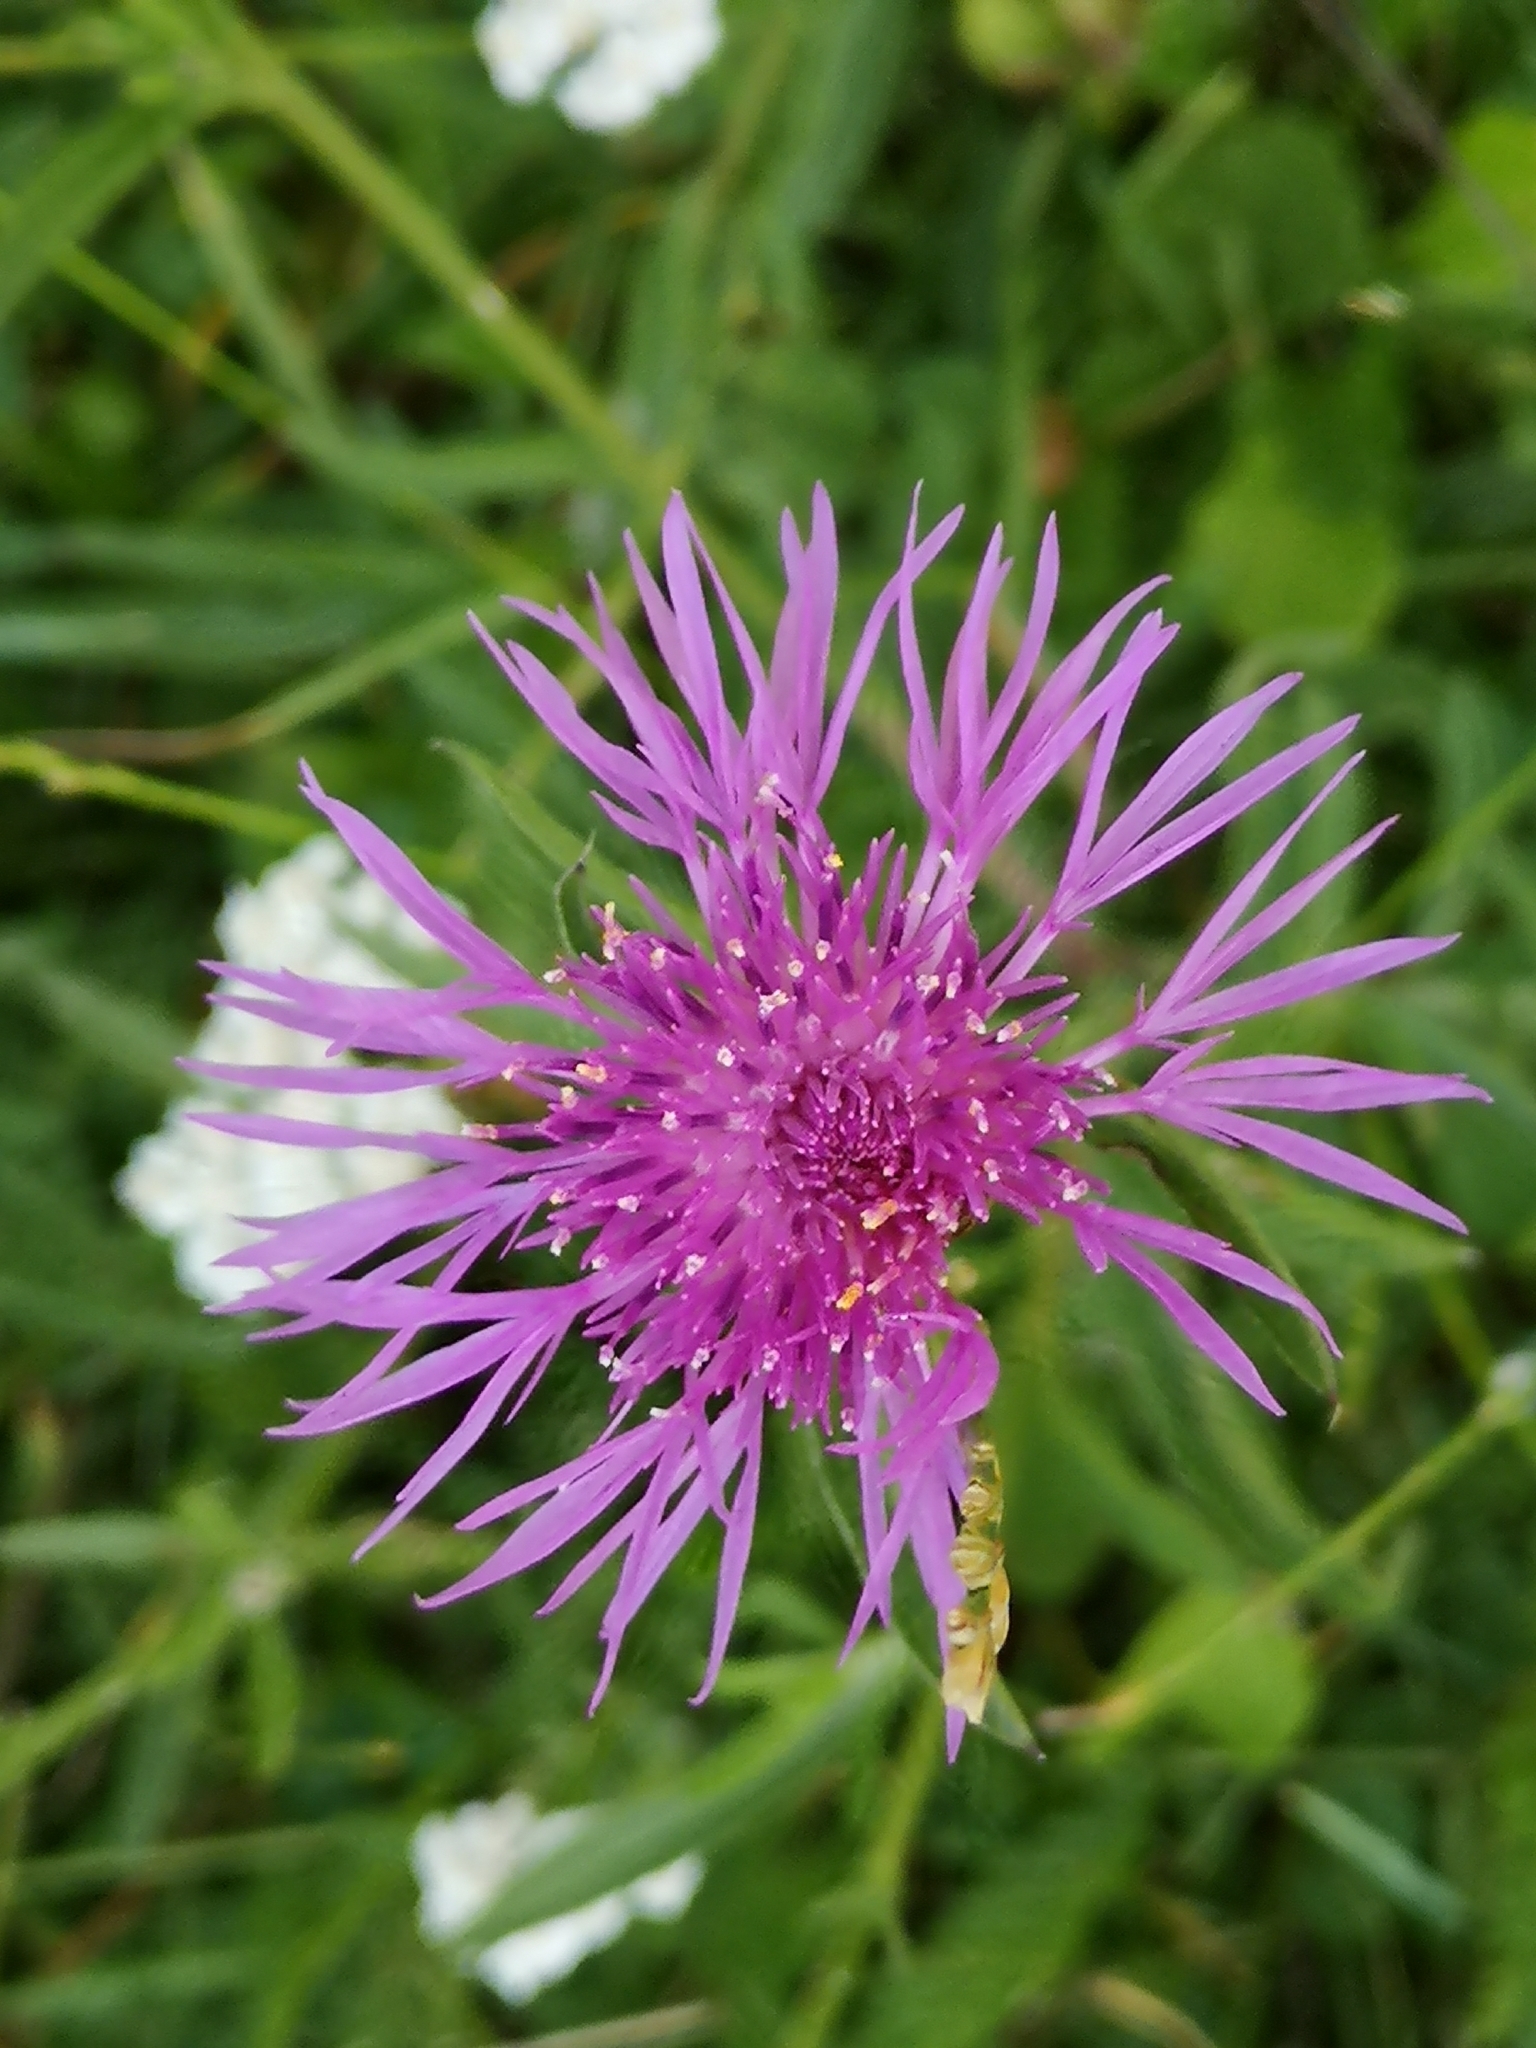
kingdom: Plantae
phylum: Tracheophyta
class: Magnoliopsida
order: Asterales
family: Asteraceae
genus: Centaurea
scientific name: Centaurea jacea
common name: Brown knapweed
